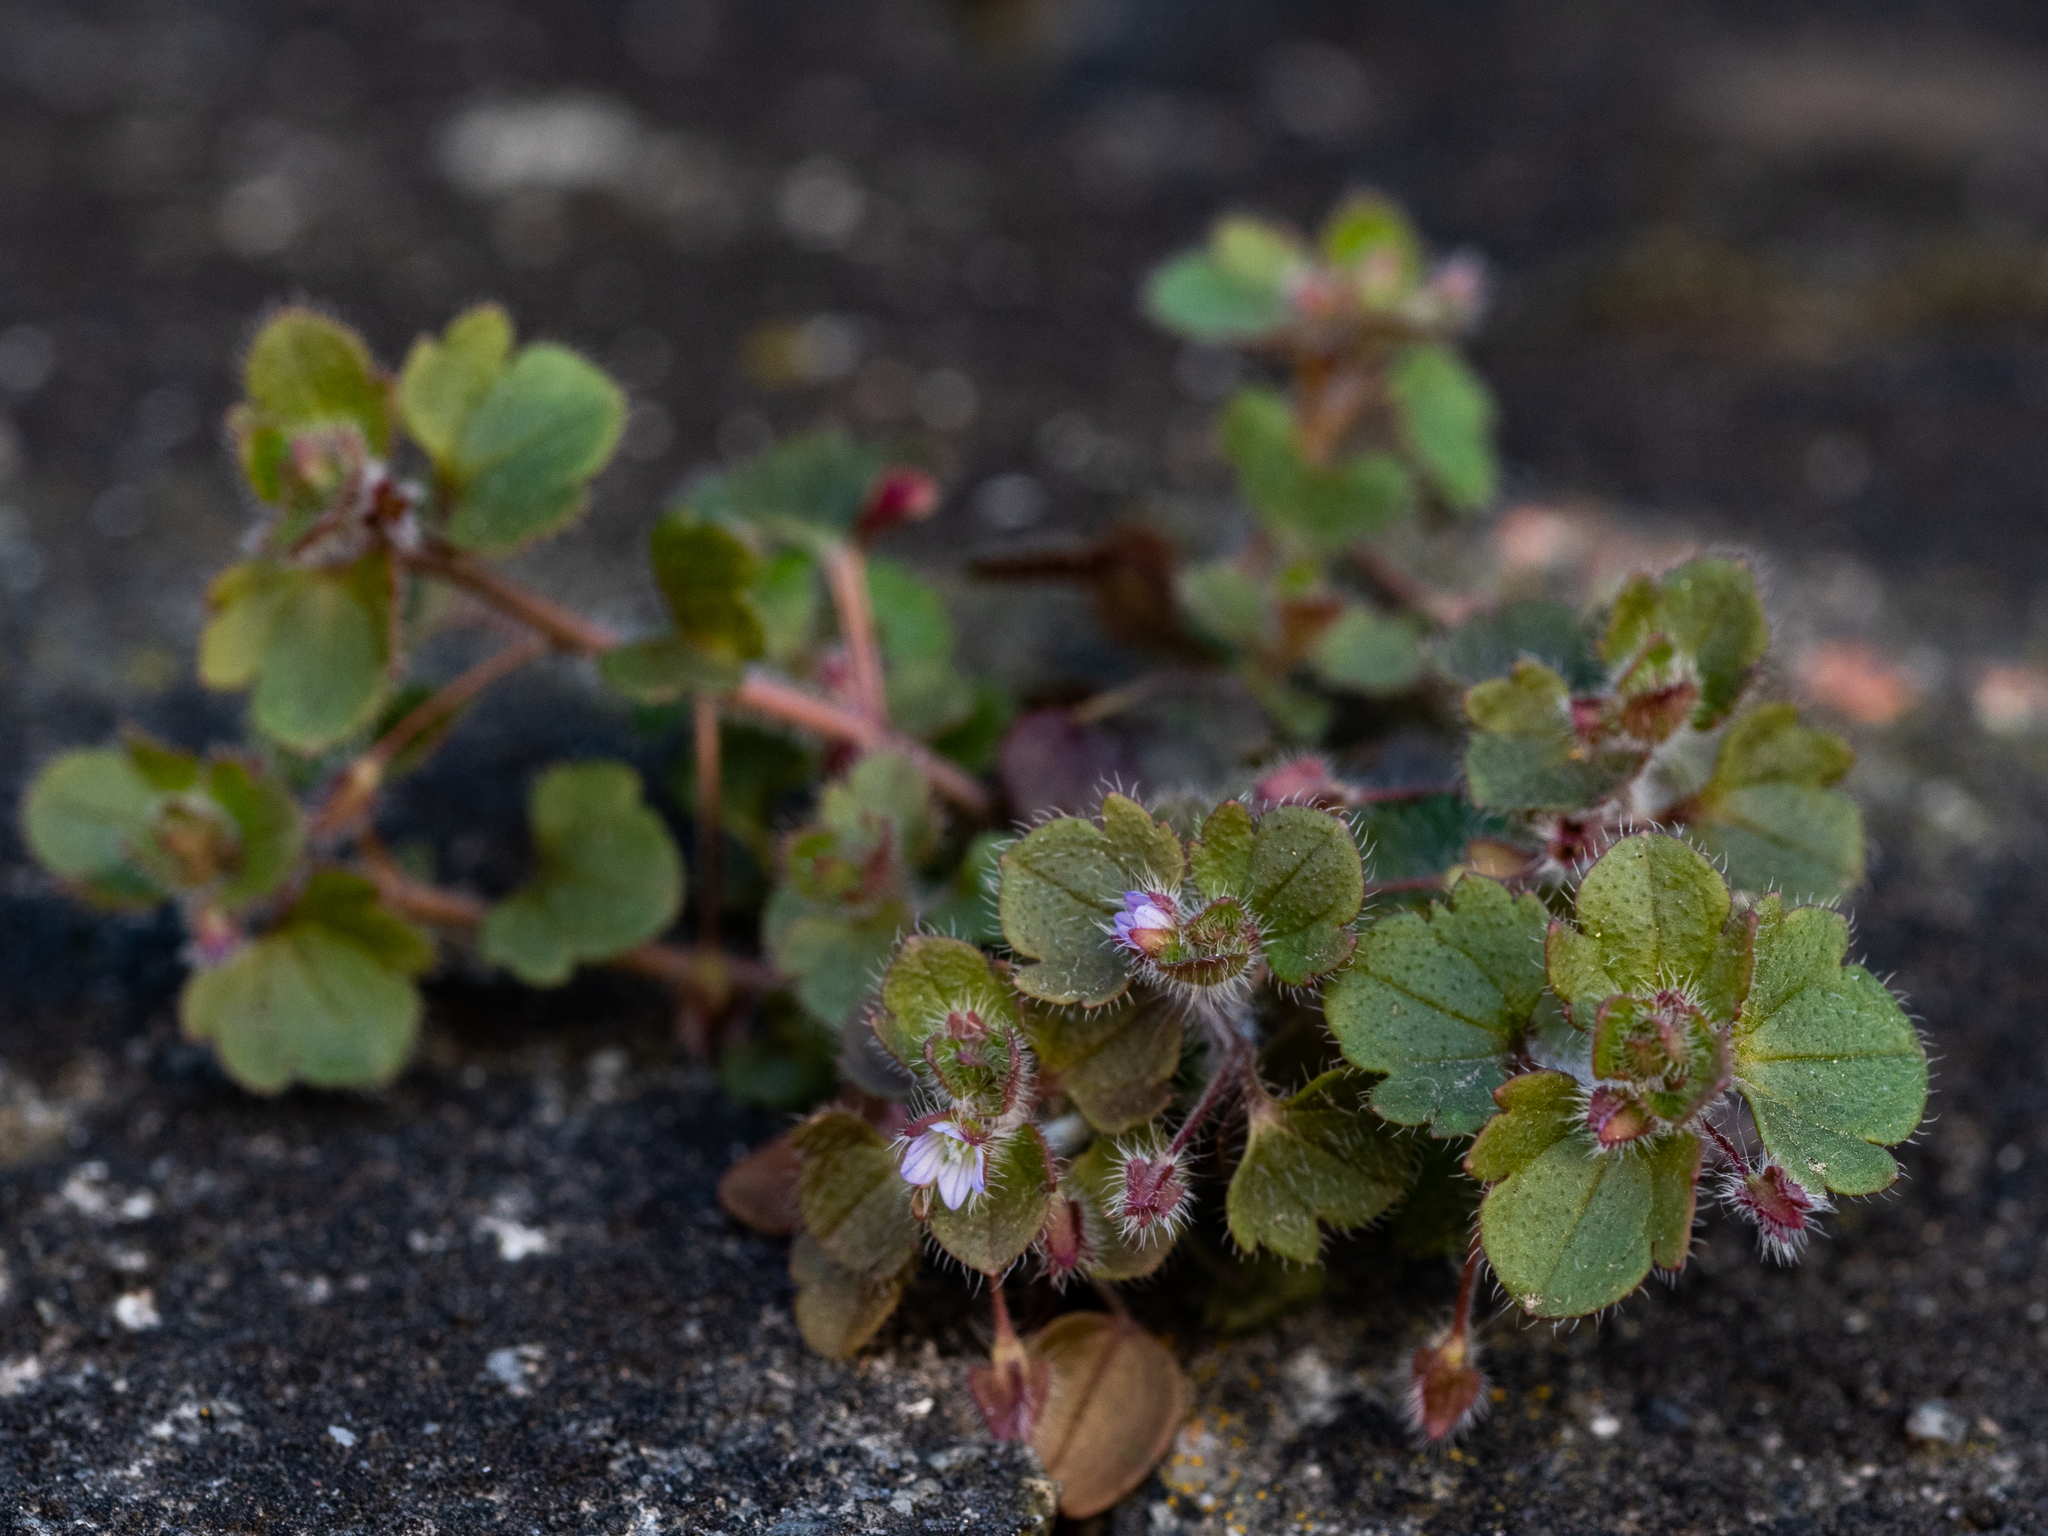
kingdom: Plantae
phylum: Tracheophyta
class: Magnoliopsida
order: Lamiales
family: Plantaginaceae
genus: Veronica
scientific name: Veronica sublobata
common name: False ivy-leaved speedwell
